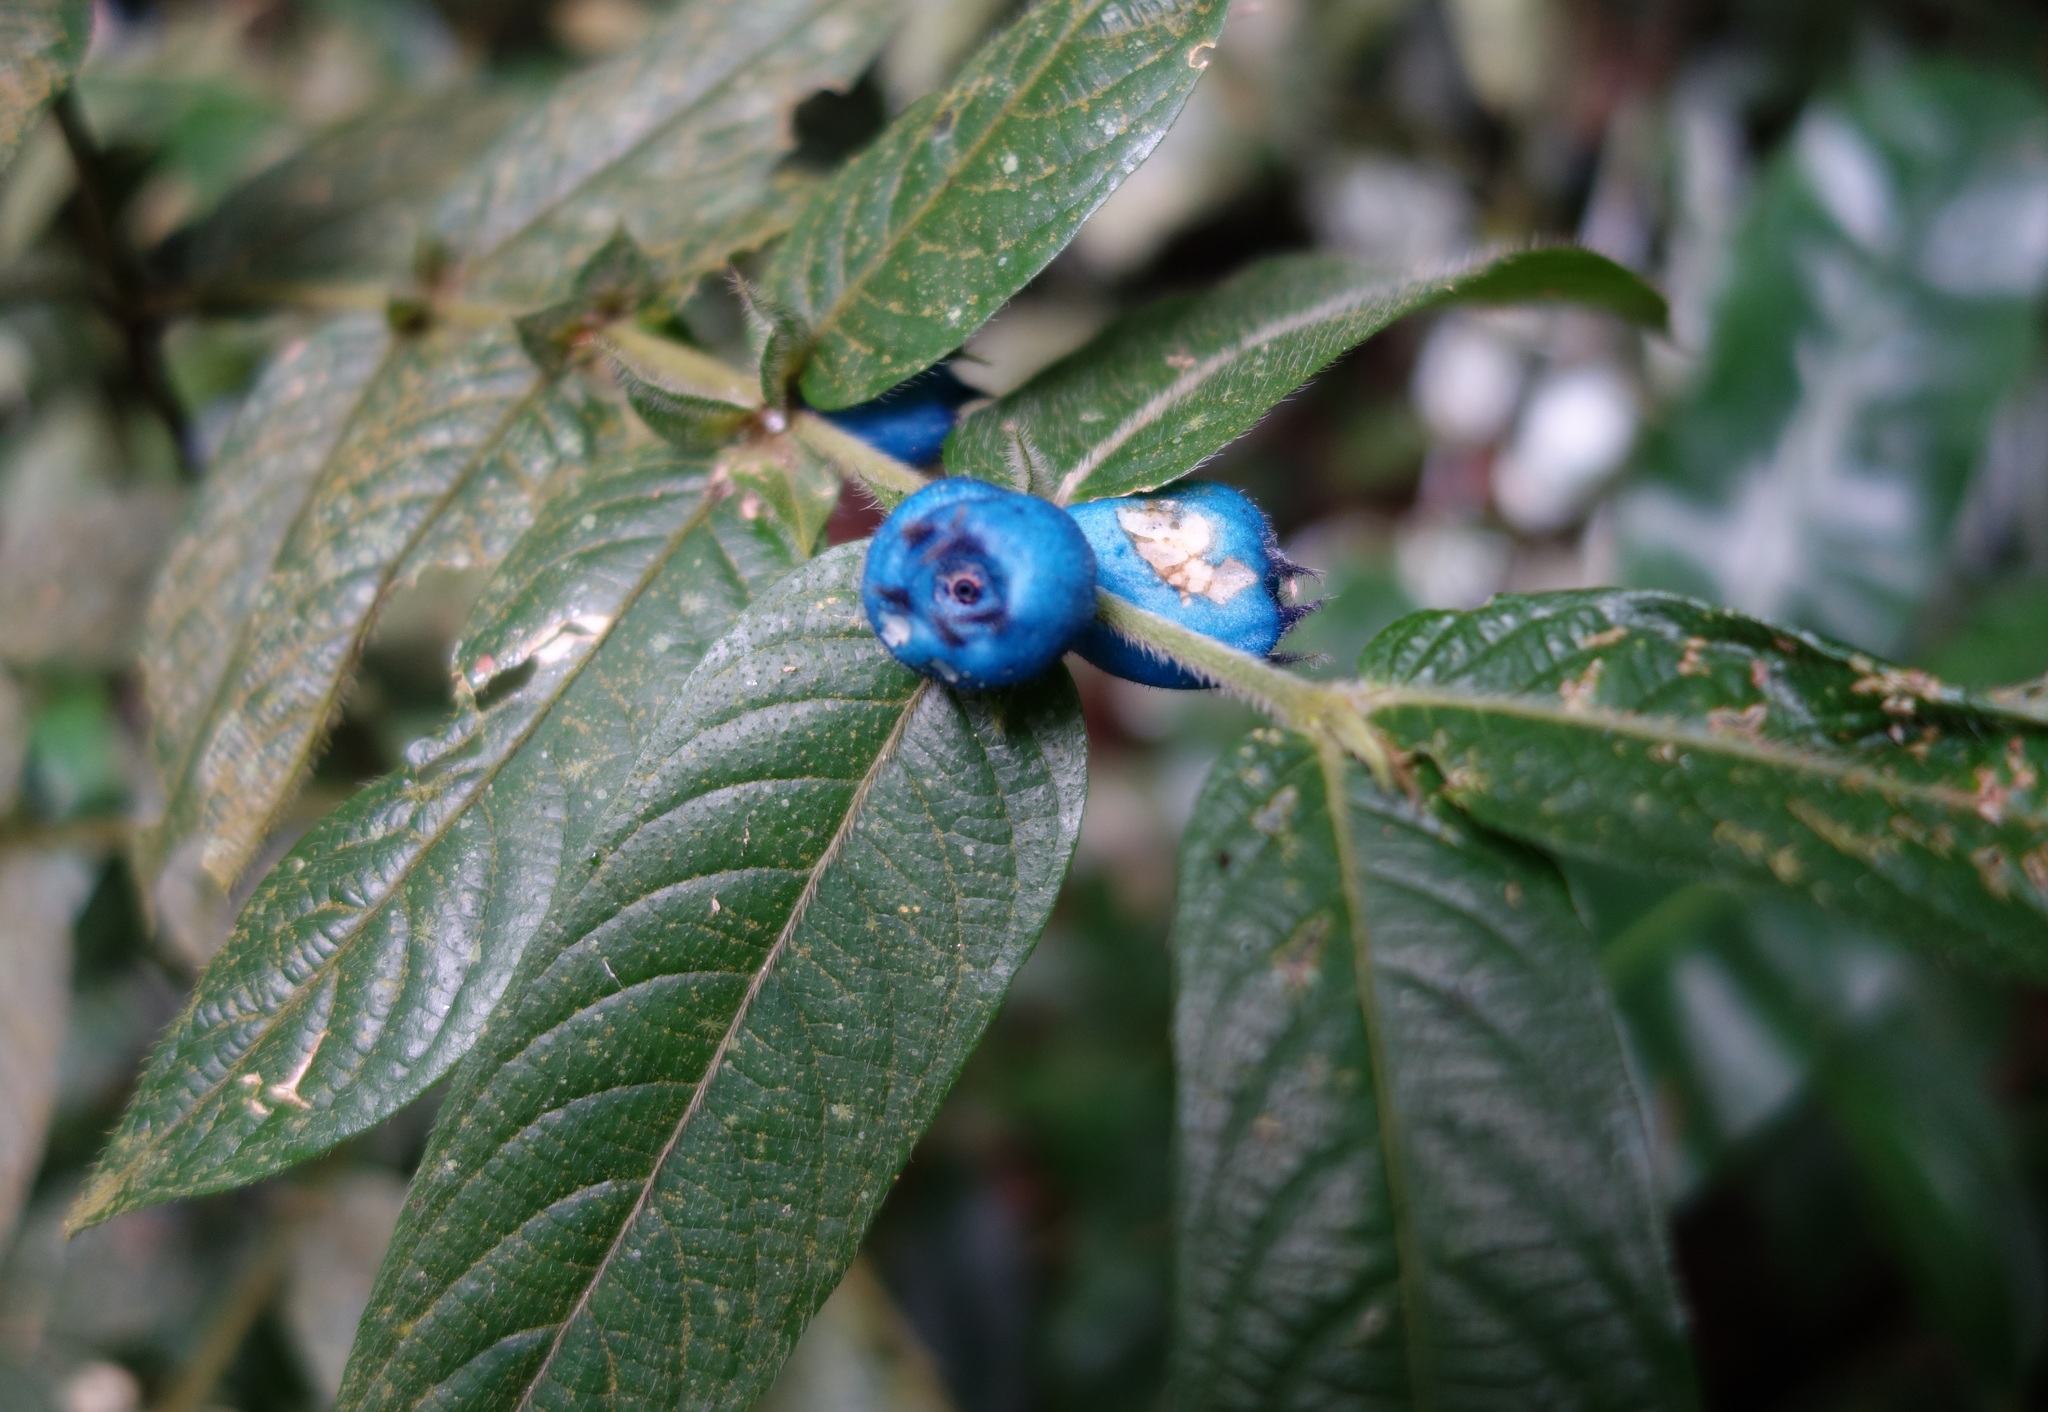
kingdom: Plantae
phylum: Tracheophyta
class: Magnoliopsida
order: Gentianales
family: Rubiaceae
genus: Lasianthus
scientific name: Lasianthus attenuatus
